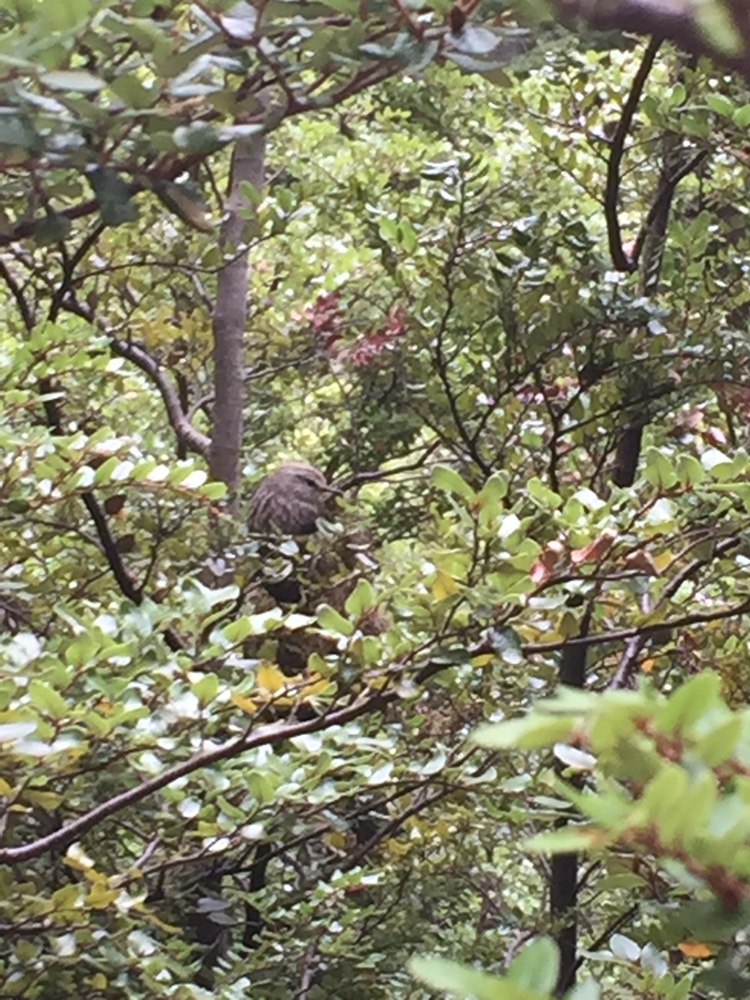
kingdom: Animalia
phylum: Chordata
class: Aves
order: Passeriformes
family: Acanthisittidae
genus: Acanthisitta
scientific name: Acanthisitta chloris
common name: Rifleman
